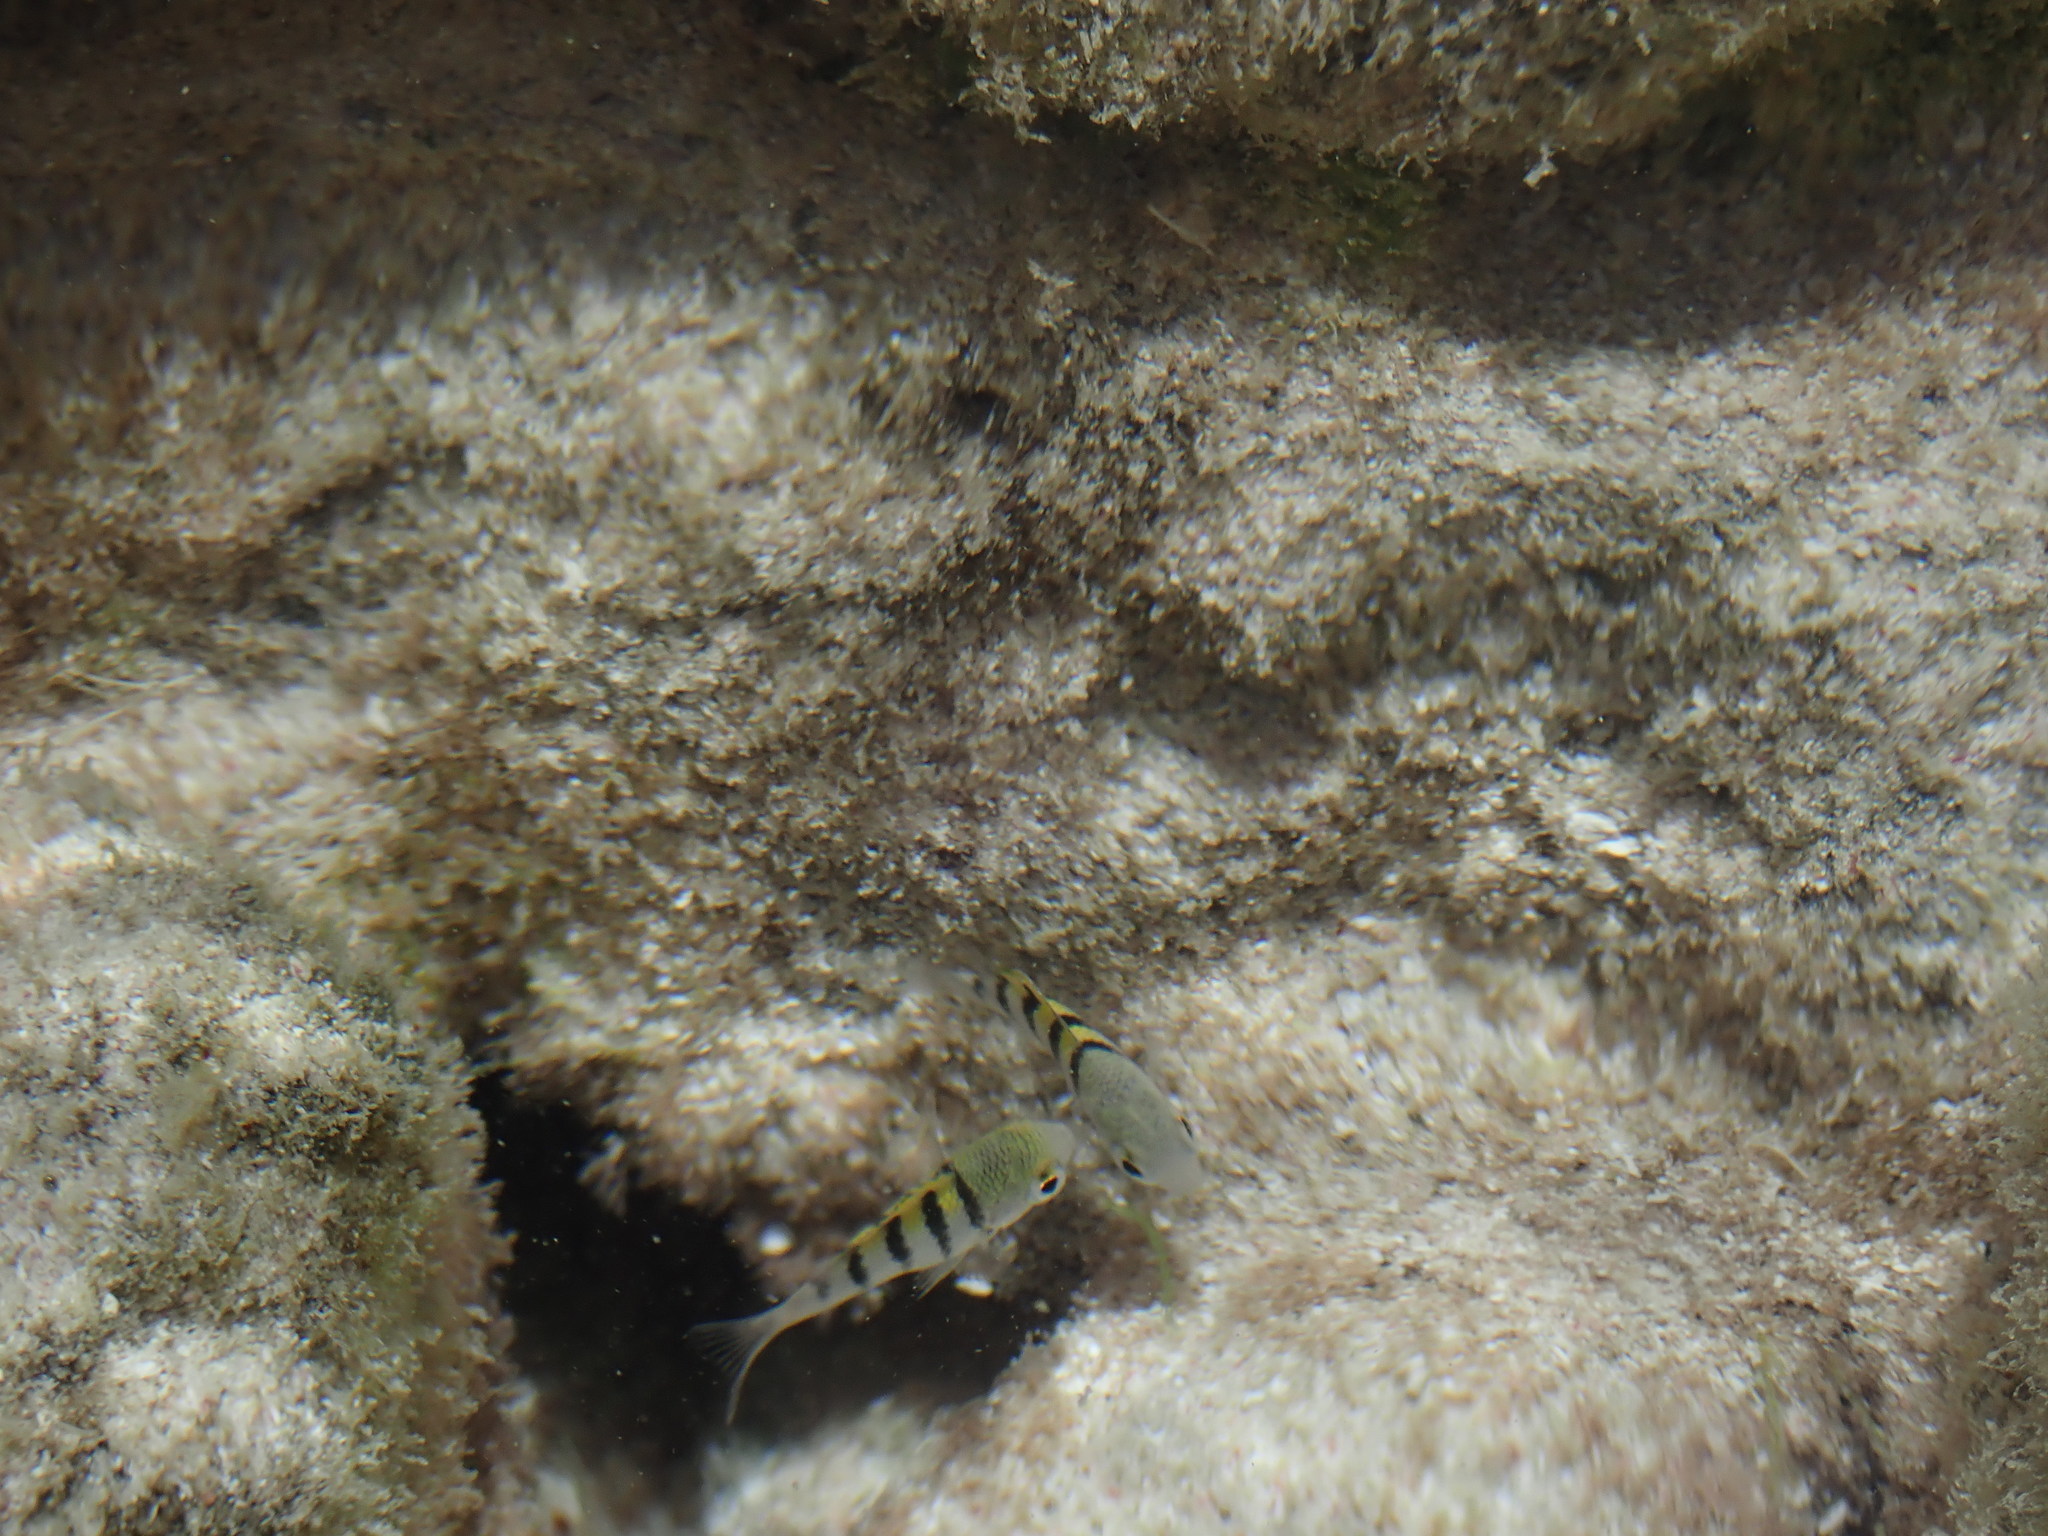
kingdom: Animalia
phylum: Chordata
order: Perciformes
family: Pomacentridae
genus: Abudefduf
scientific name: Abudefduf saxatilis
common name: Sergeant major
